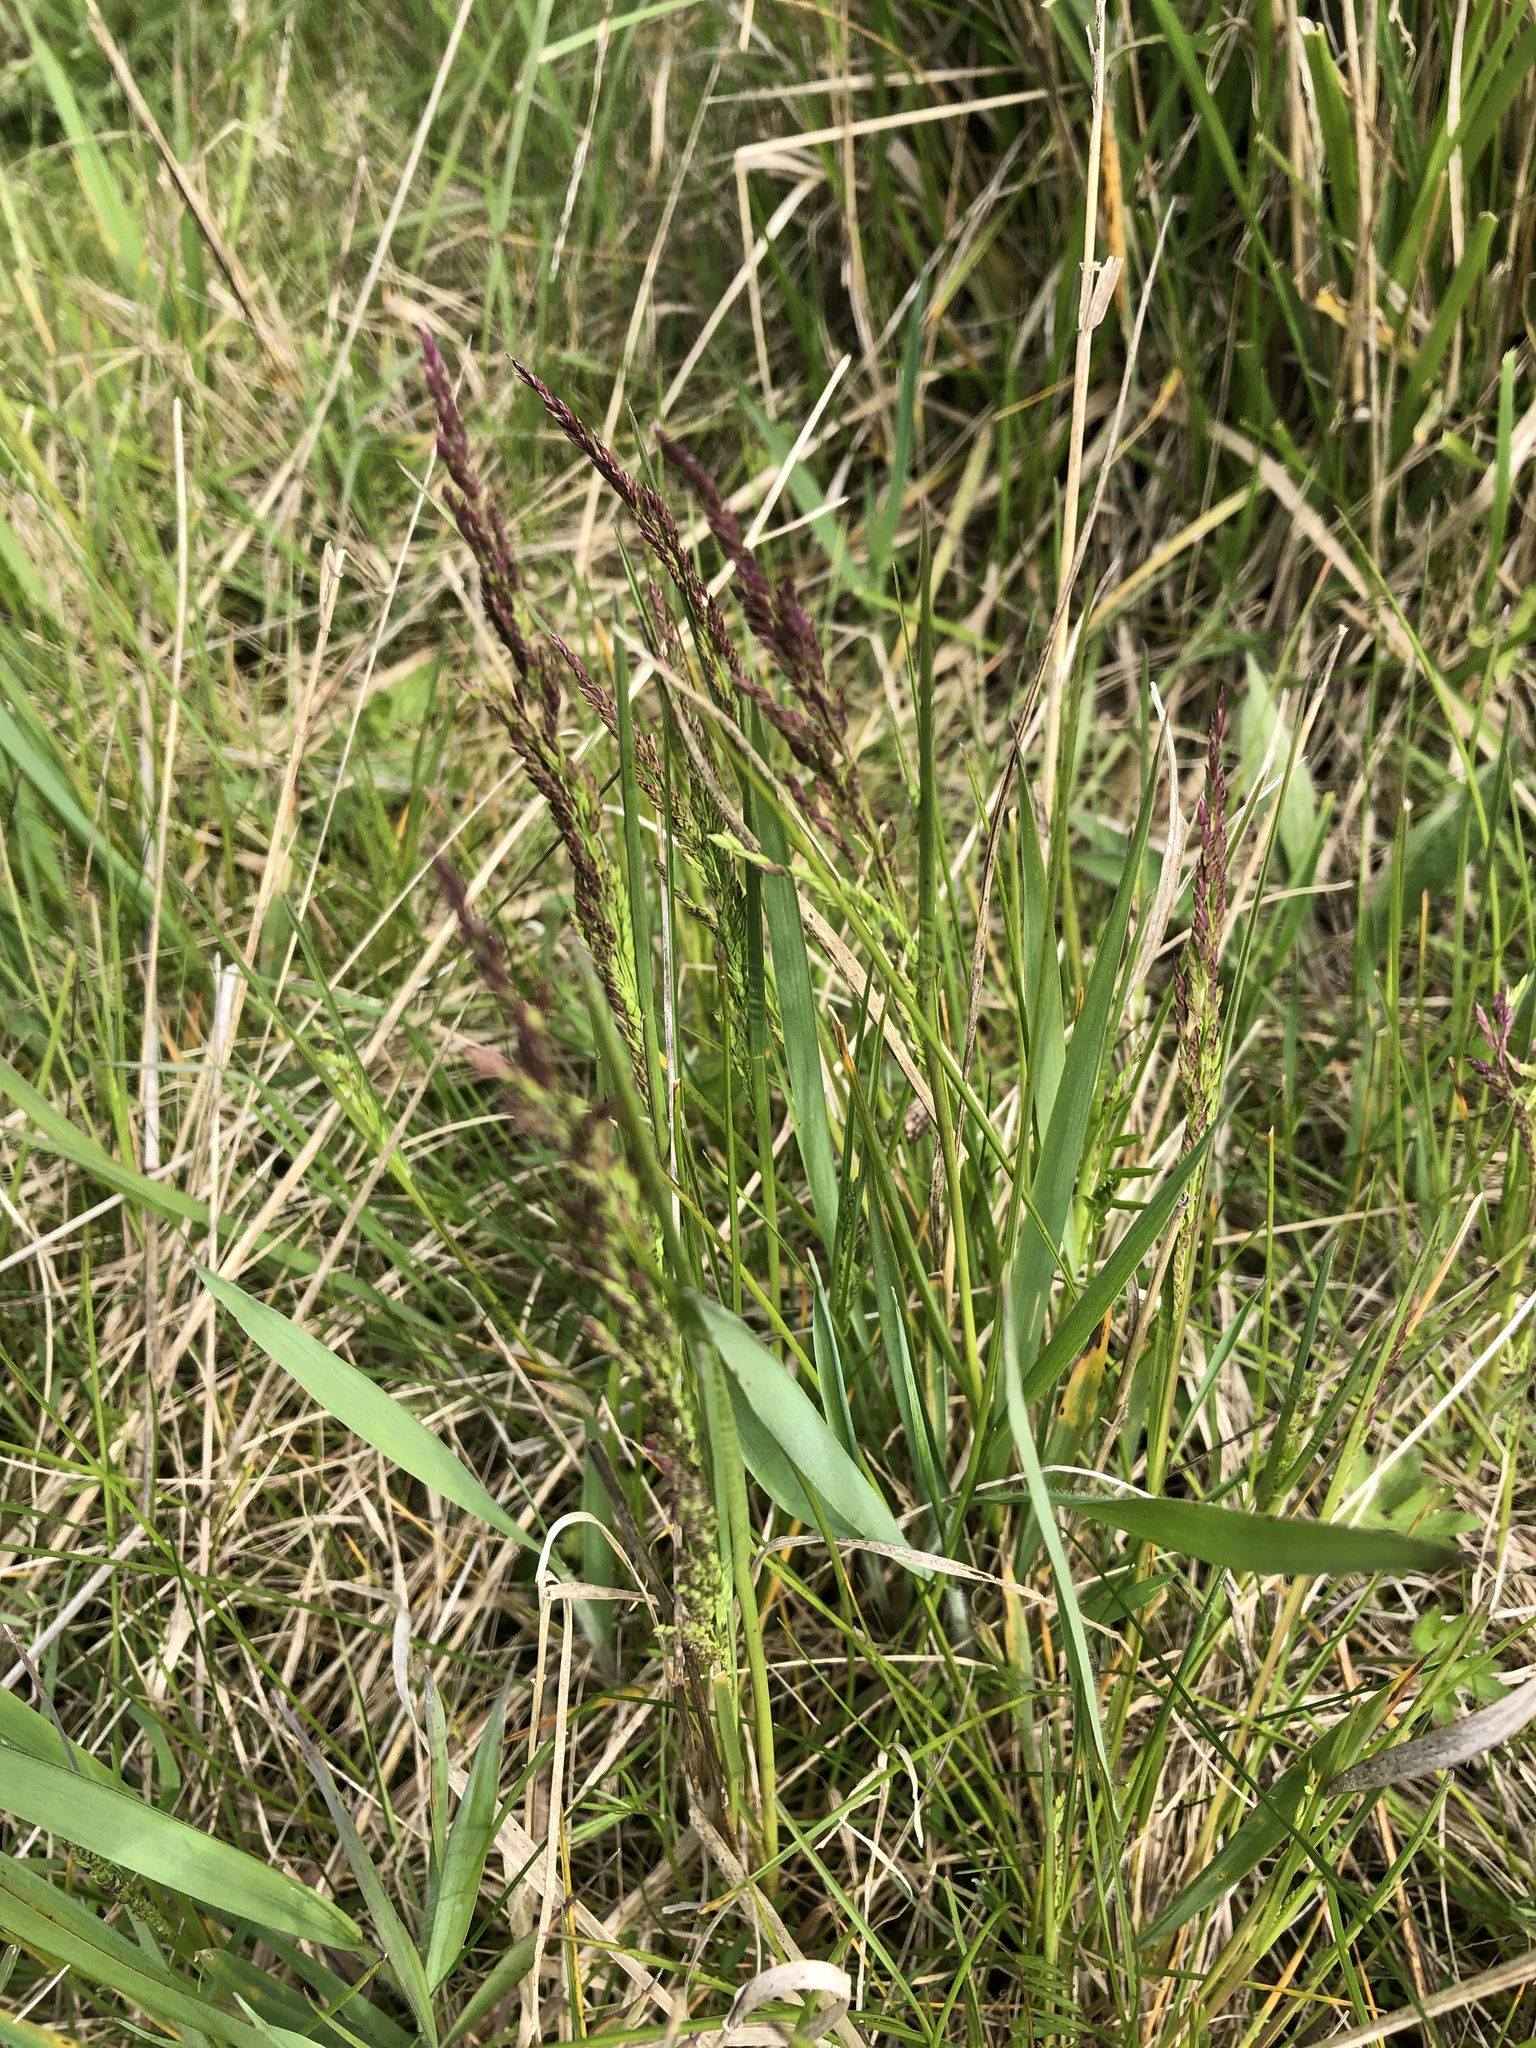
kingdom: Plantae
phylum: Tracheophyta
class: Liliopsida
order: Poales
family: Poaceae
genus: Festuca
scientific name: Festuca rubra
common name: Red fescue
